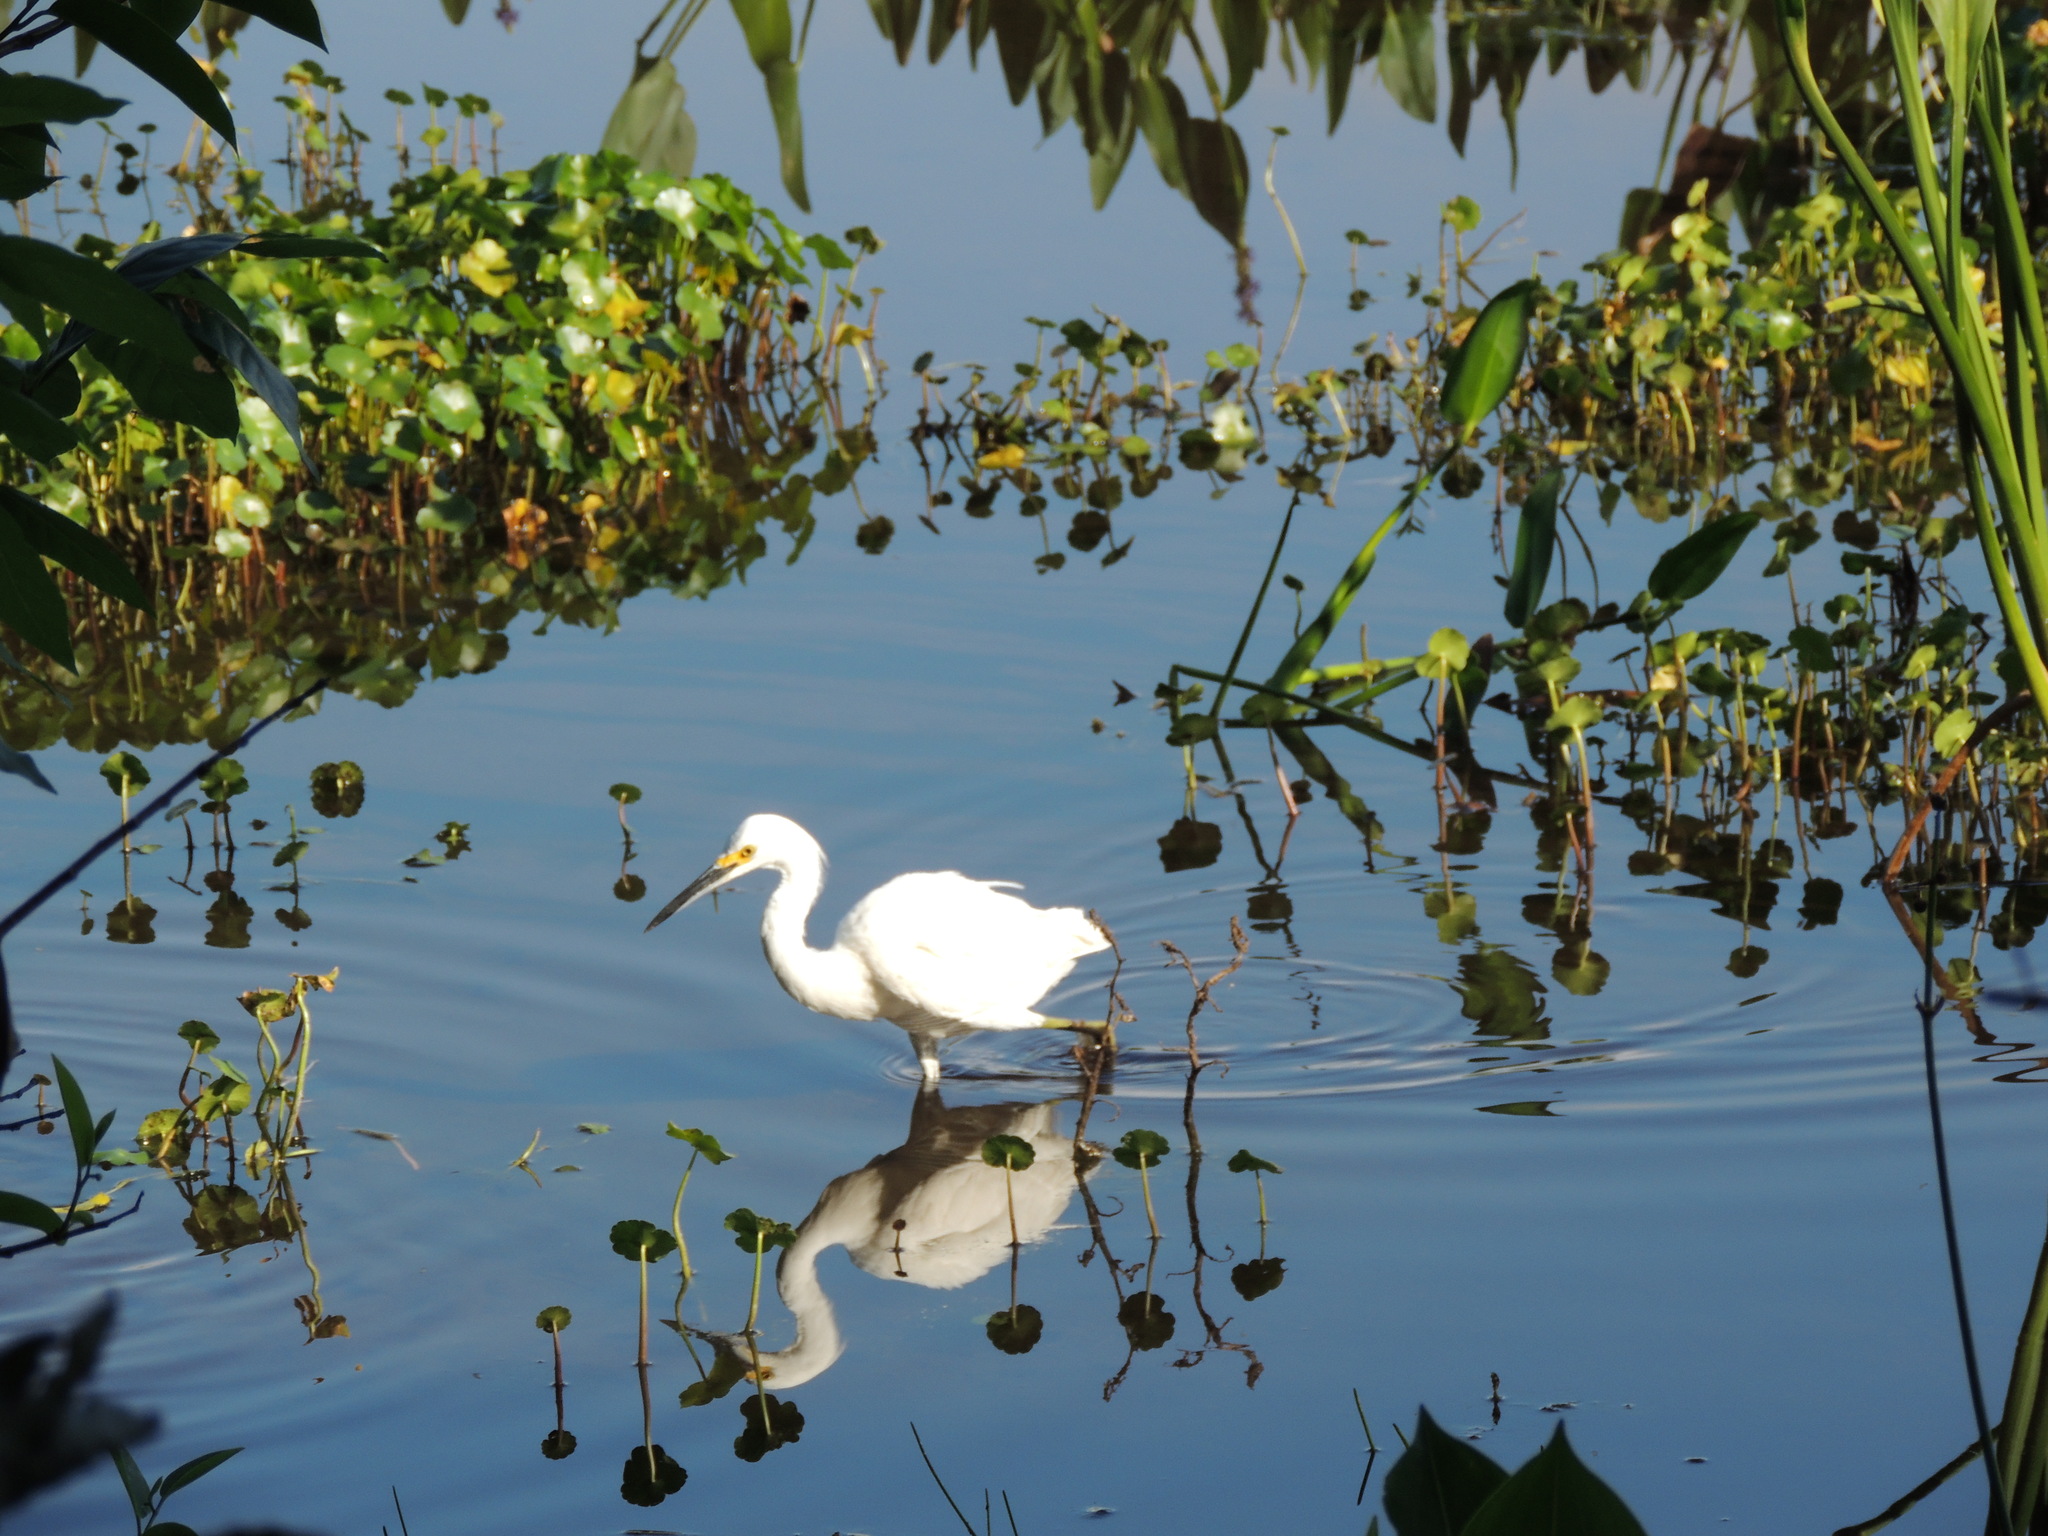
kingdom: Animalia
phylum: Chordata
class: Aves
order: Pelecaniformes
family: Ardeidae
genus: Egretta
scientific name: Egretta thula
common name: Snowy egret
